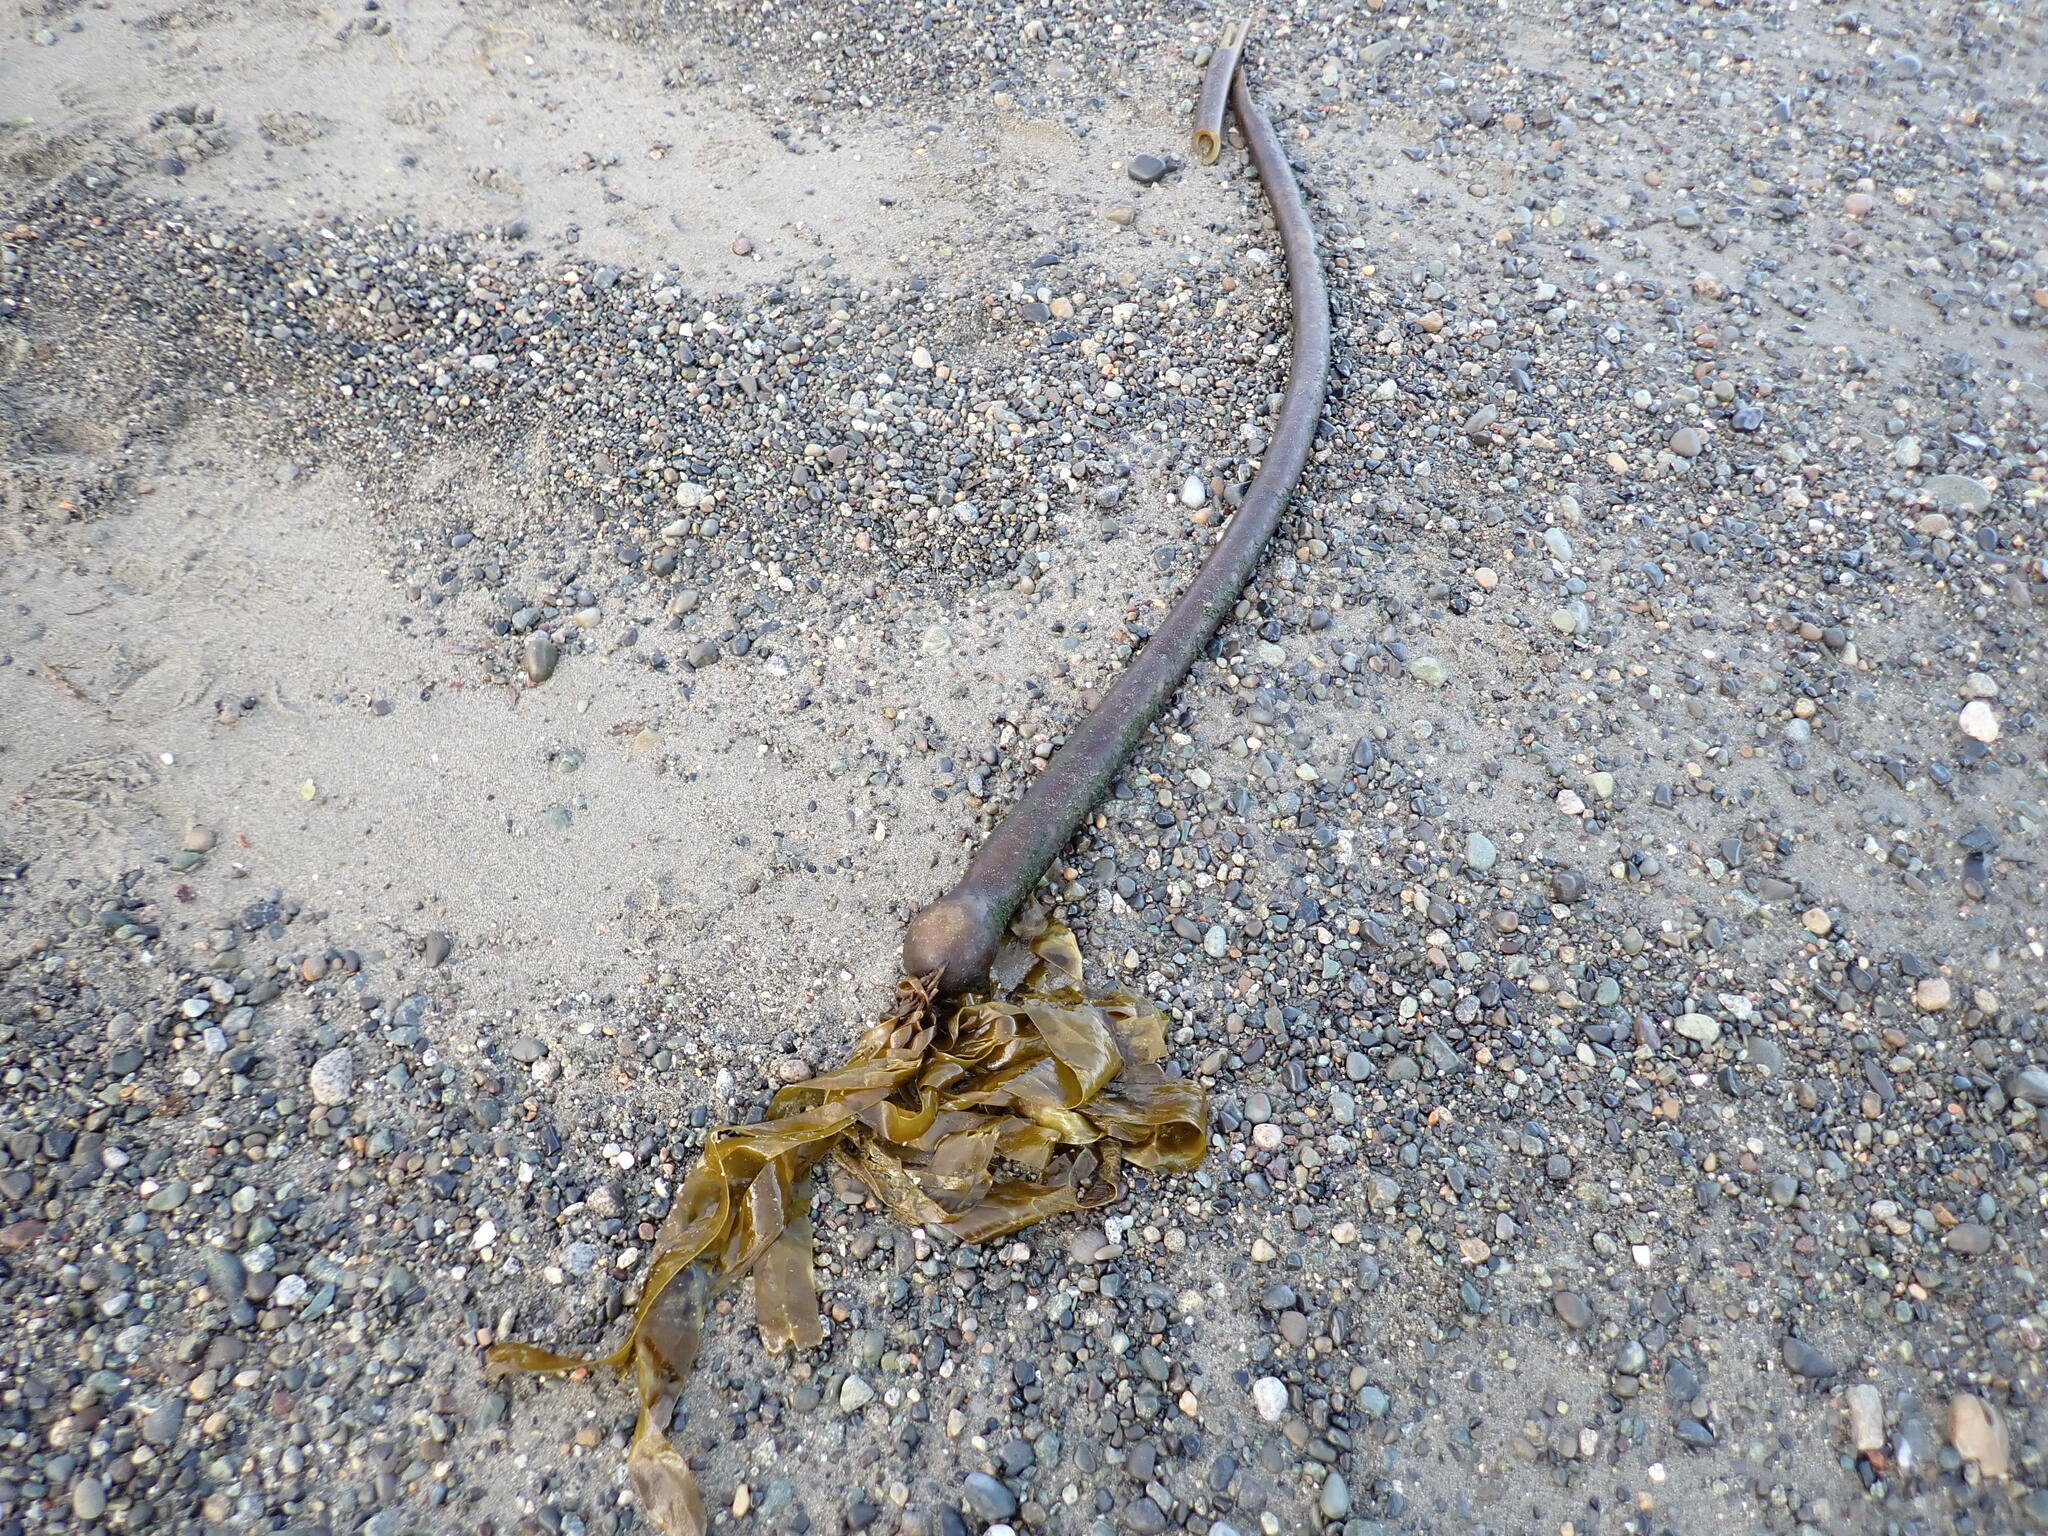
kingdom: Chromista
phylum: Ochrophyta
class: Phaeophyceae
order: Laminariales
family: Laminariaceae
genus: Nereocystis
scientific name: Nereocystis luetkeana
